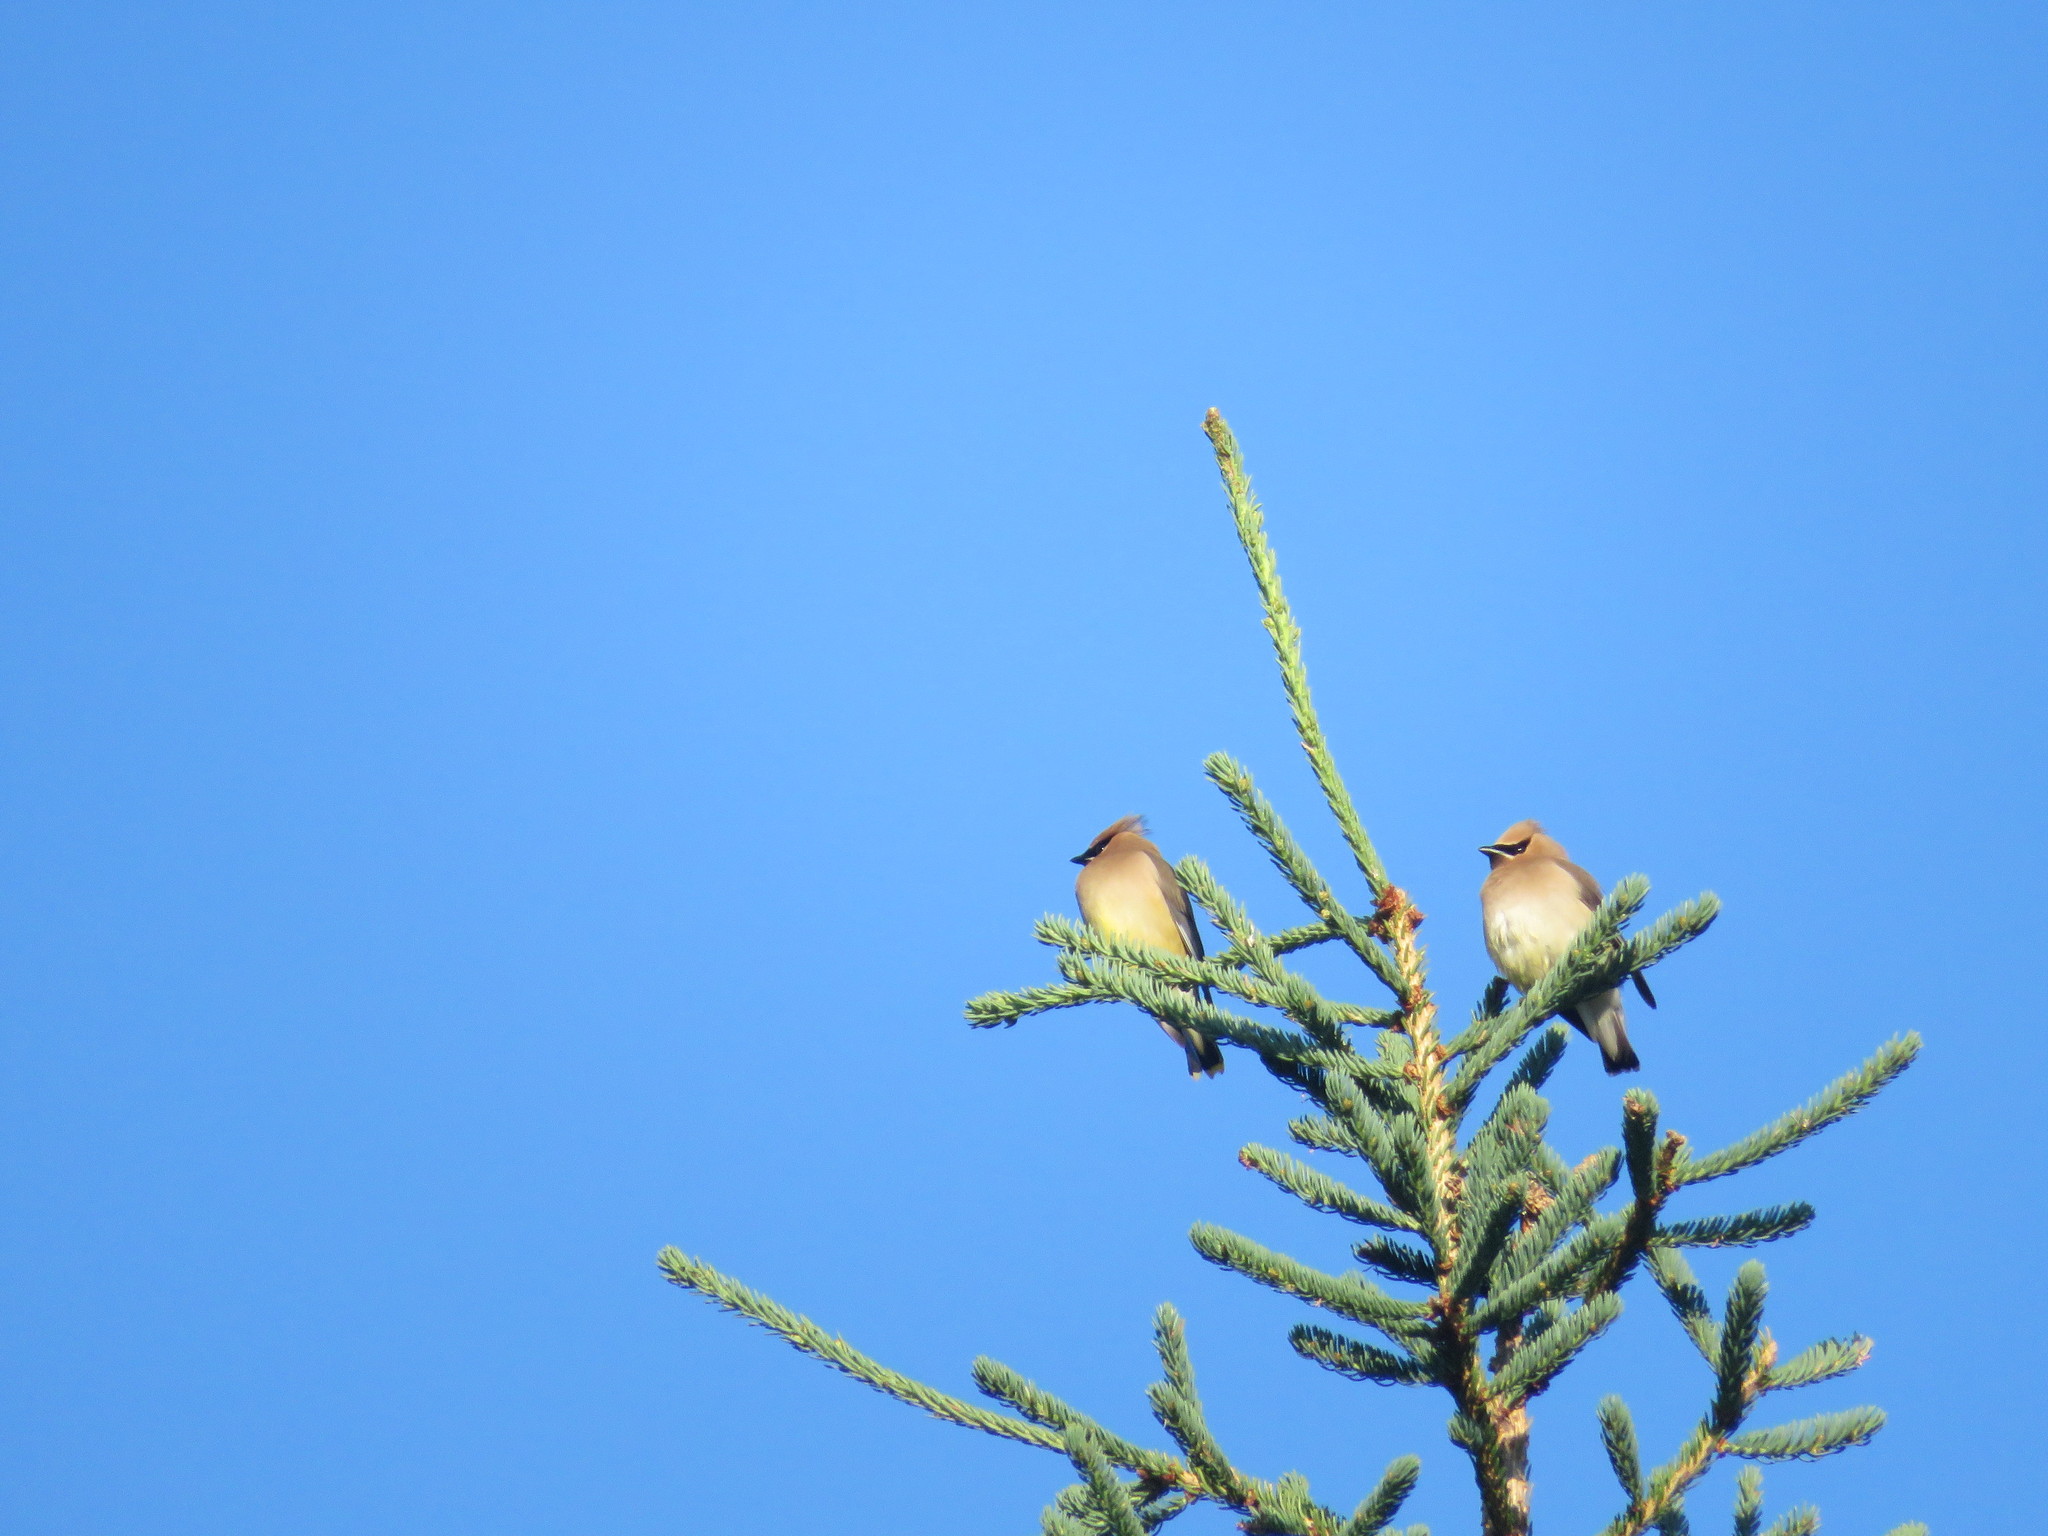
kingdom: Animalia
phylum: Chordata
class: Aves
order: Passeriformes
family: Bombycillidae
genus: Bombycilla
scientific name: Bombycilla cedrorum
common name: Cedar waxwing
